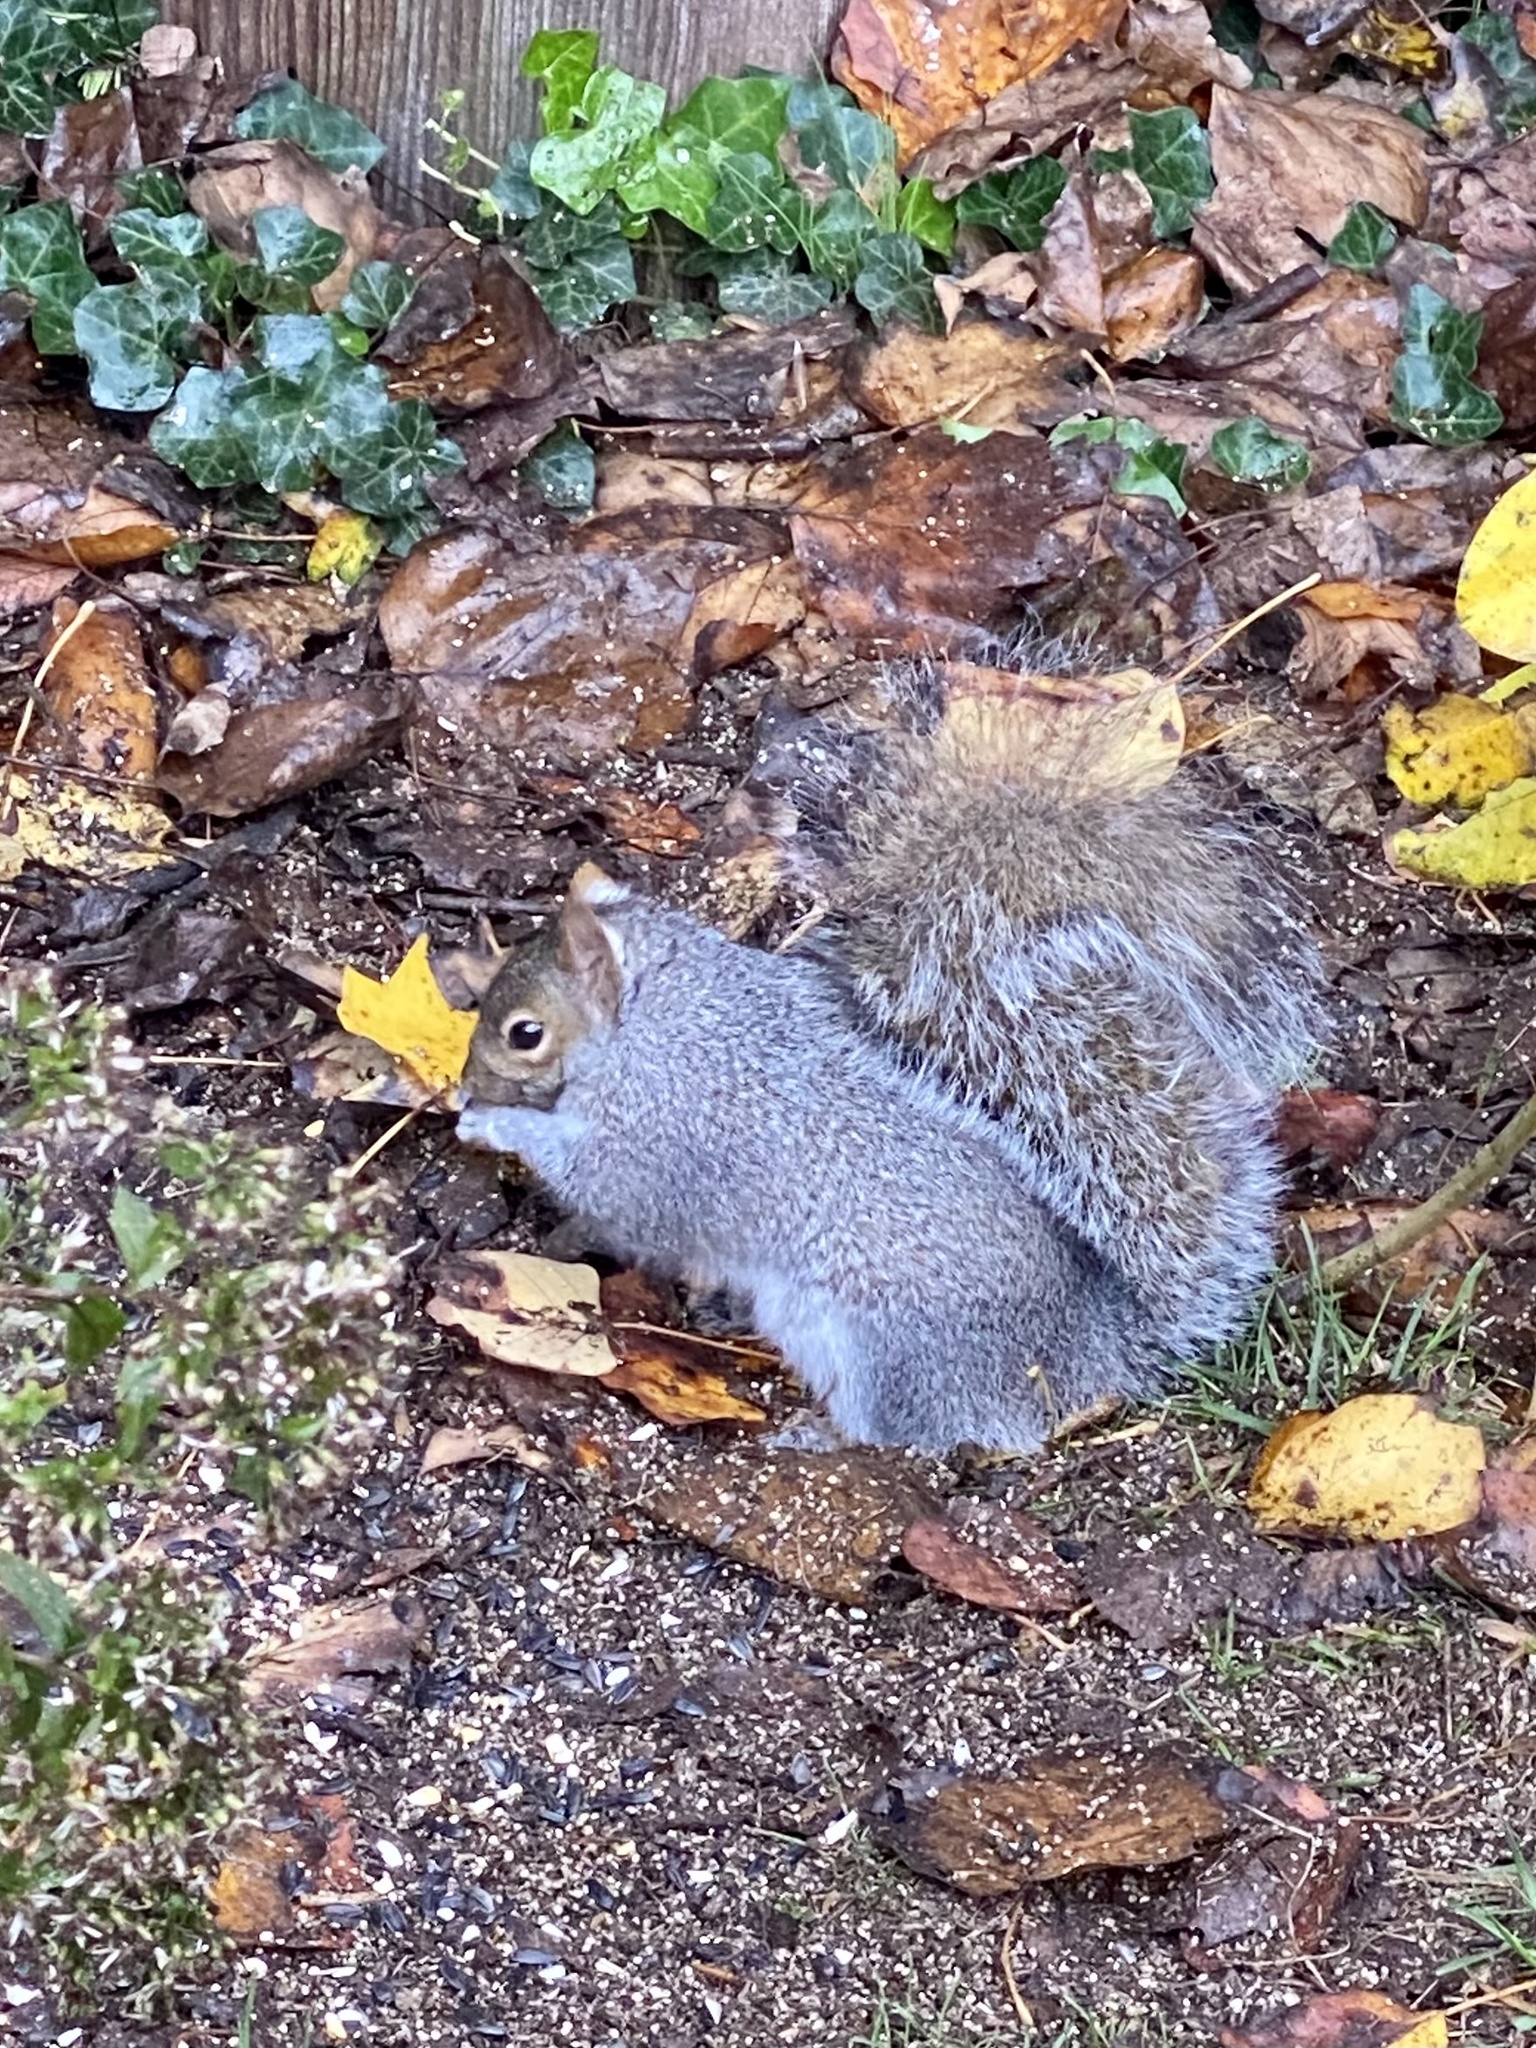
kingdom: Animalia
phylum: Chordata
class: Mammalia
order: Rodentia
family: Sciuridae
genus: Sciurus
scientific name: Sciurus carolinensis
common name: Eastern gray squirrel
